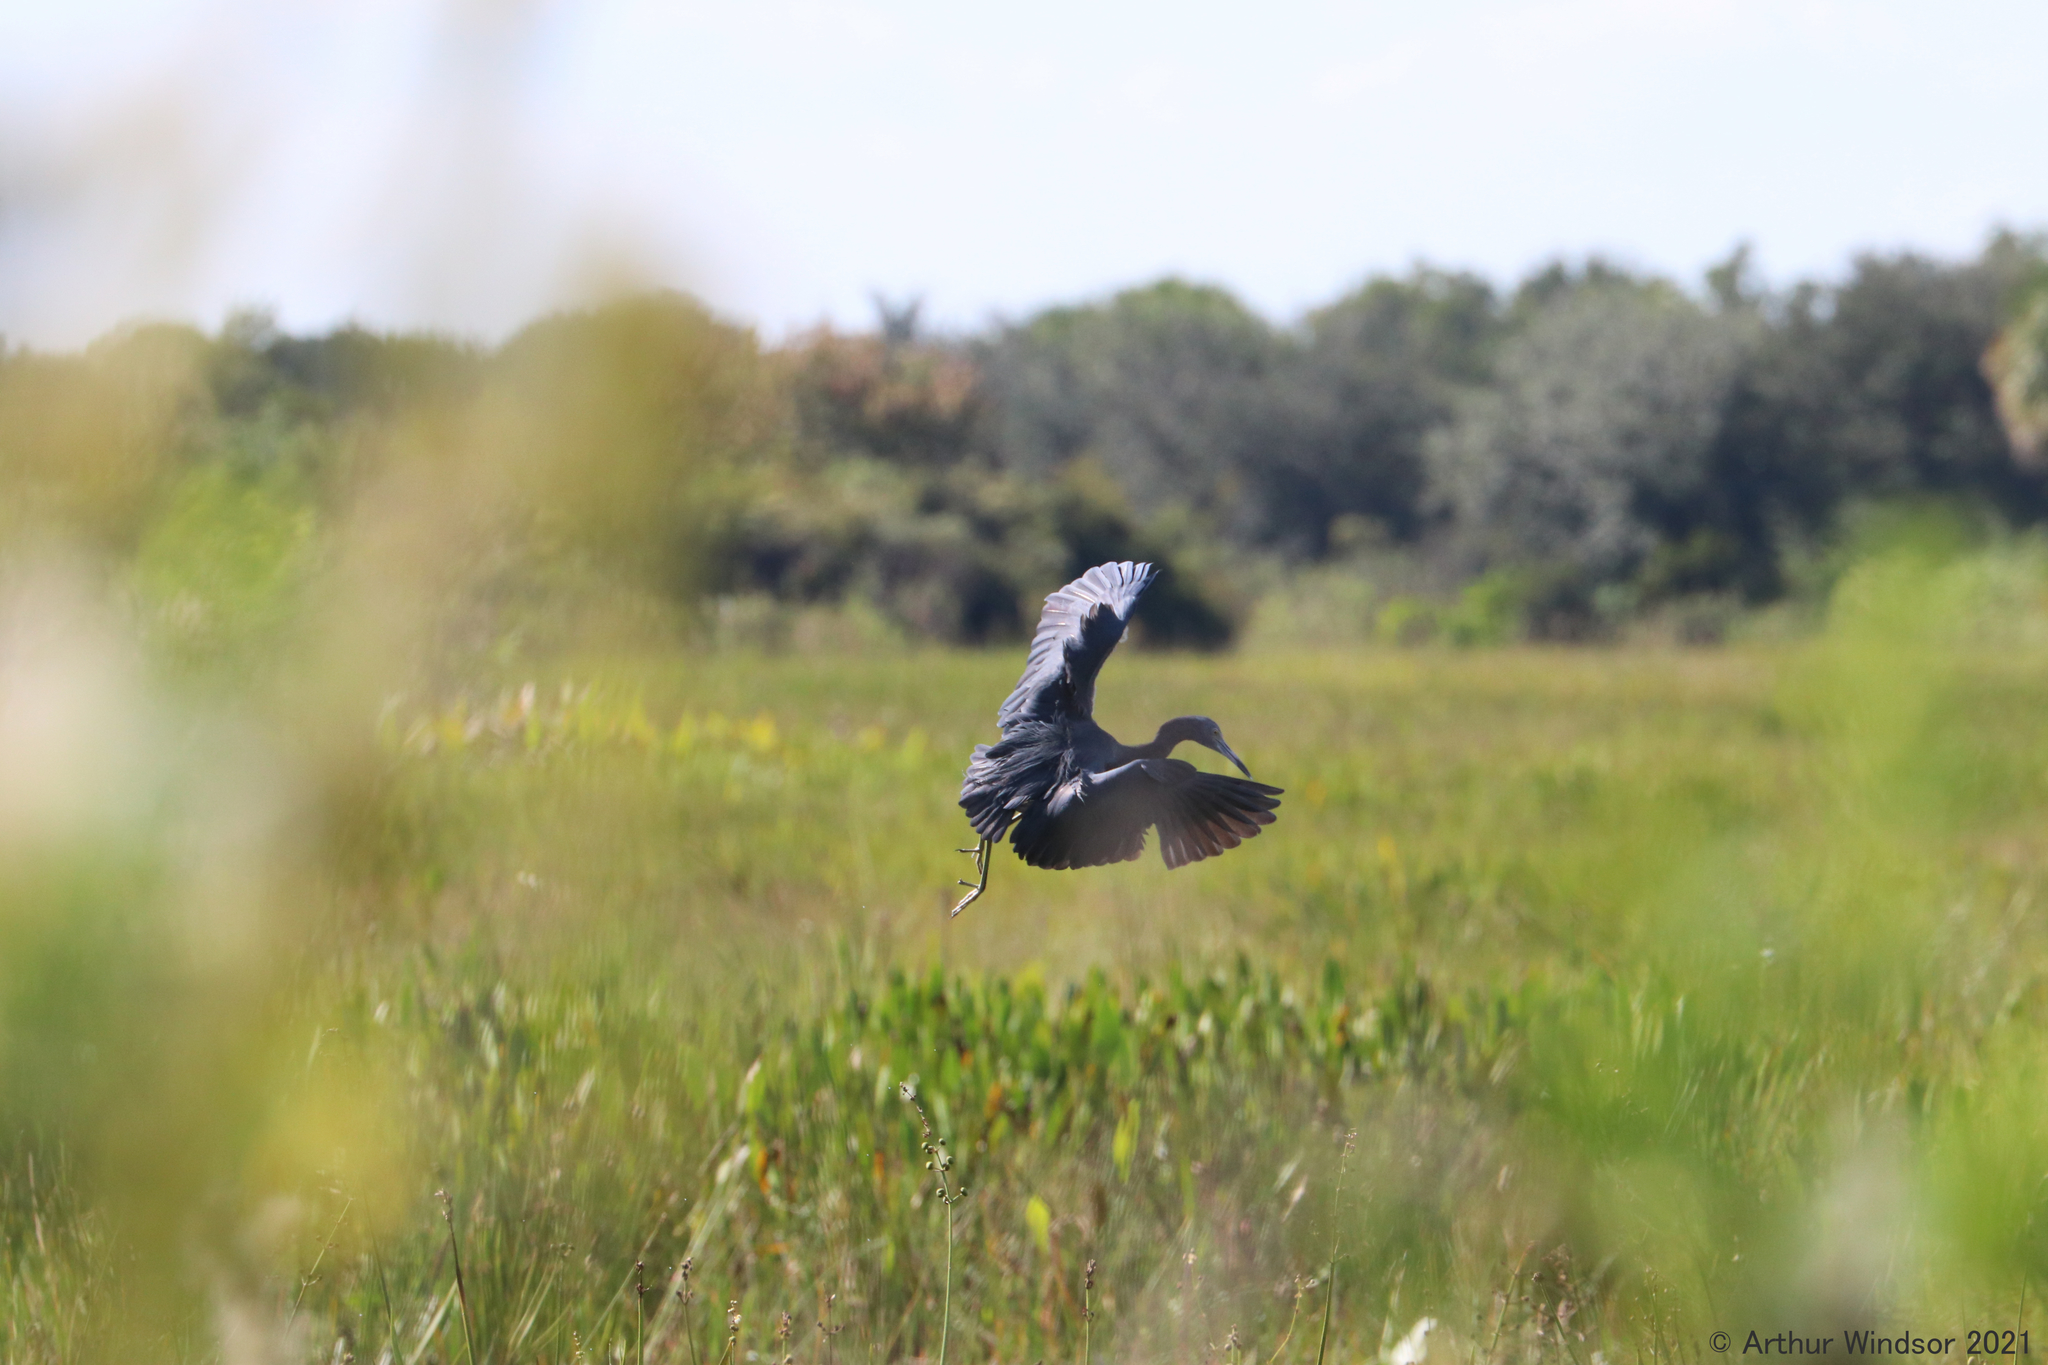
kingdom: Animalia
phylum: Chordata
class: Aves
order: Pelecaniformes
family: Ardeidae
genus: Egretta
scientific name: Egretta caerulea
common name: Little blue heron
